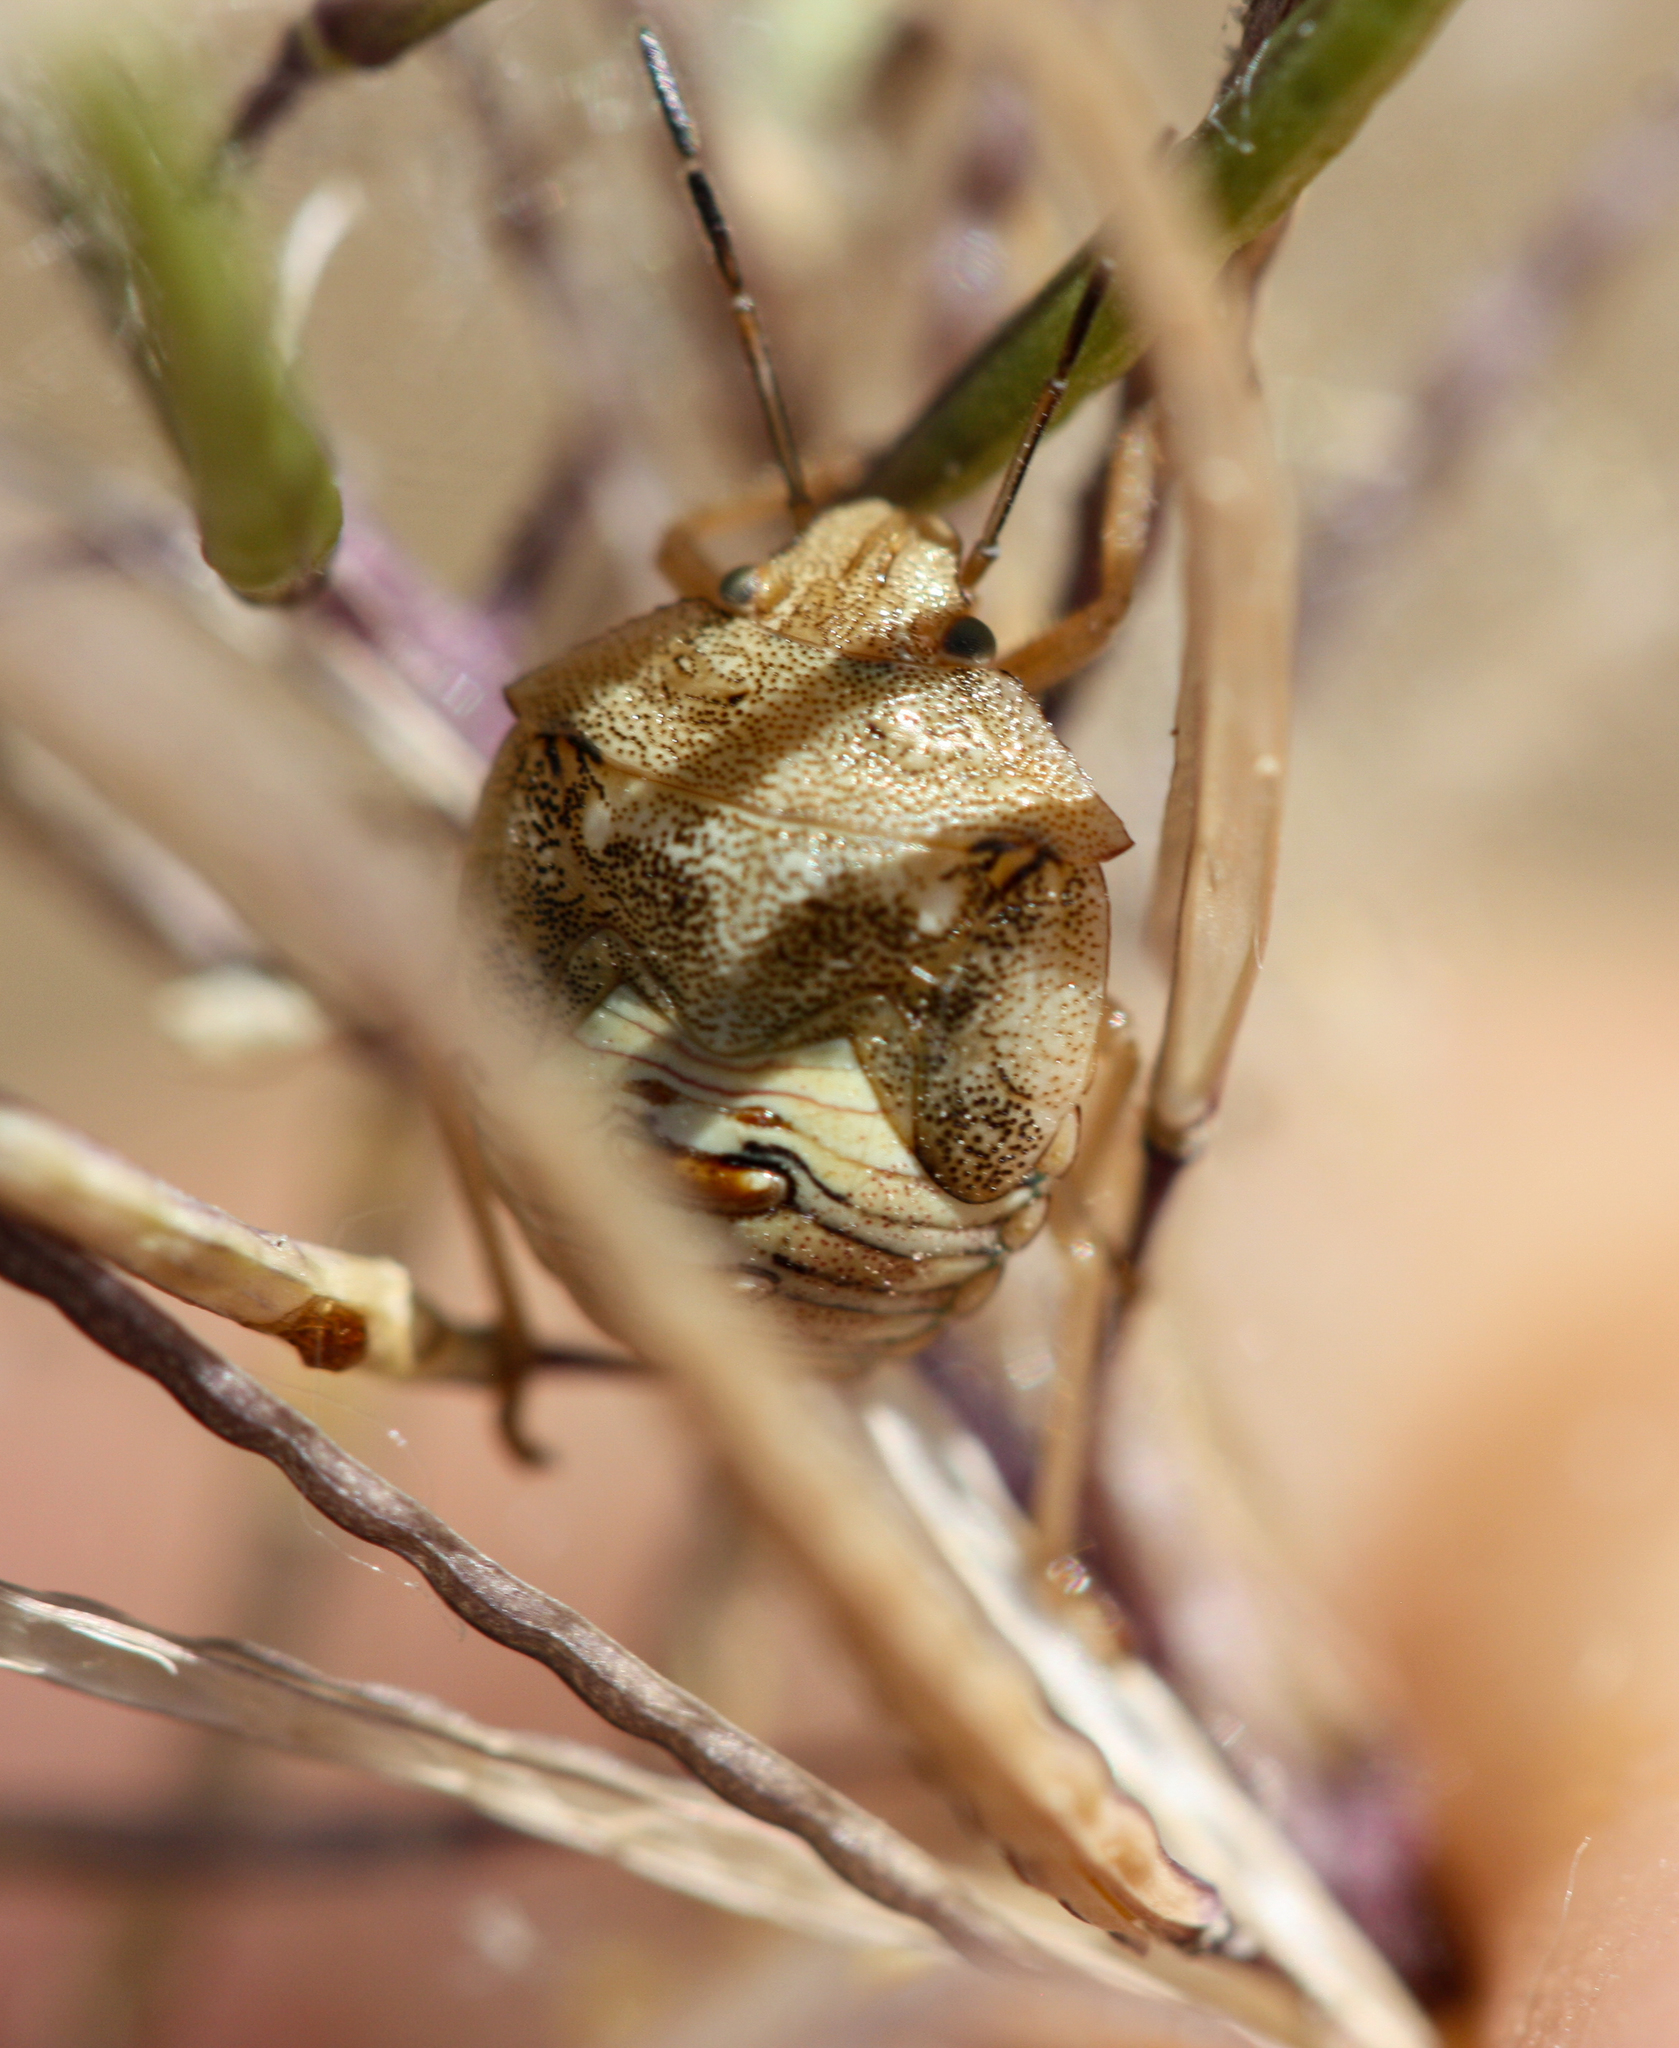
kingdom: Animalia
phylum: Arthropoda
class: Insecta
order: Hemiptera
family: Pentatomidae
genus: Thyanta
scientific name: Thyanta accerra
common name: Stink bug
